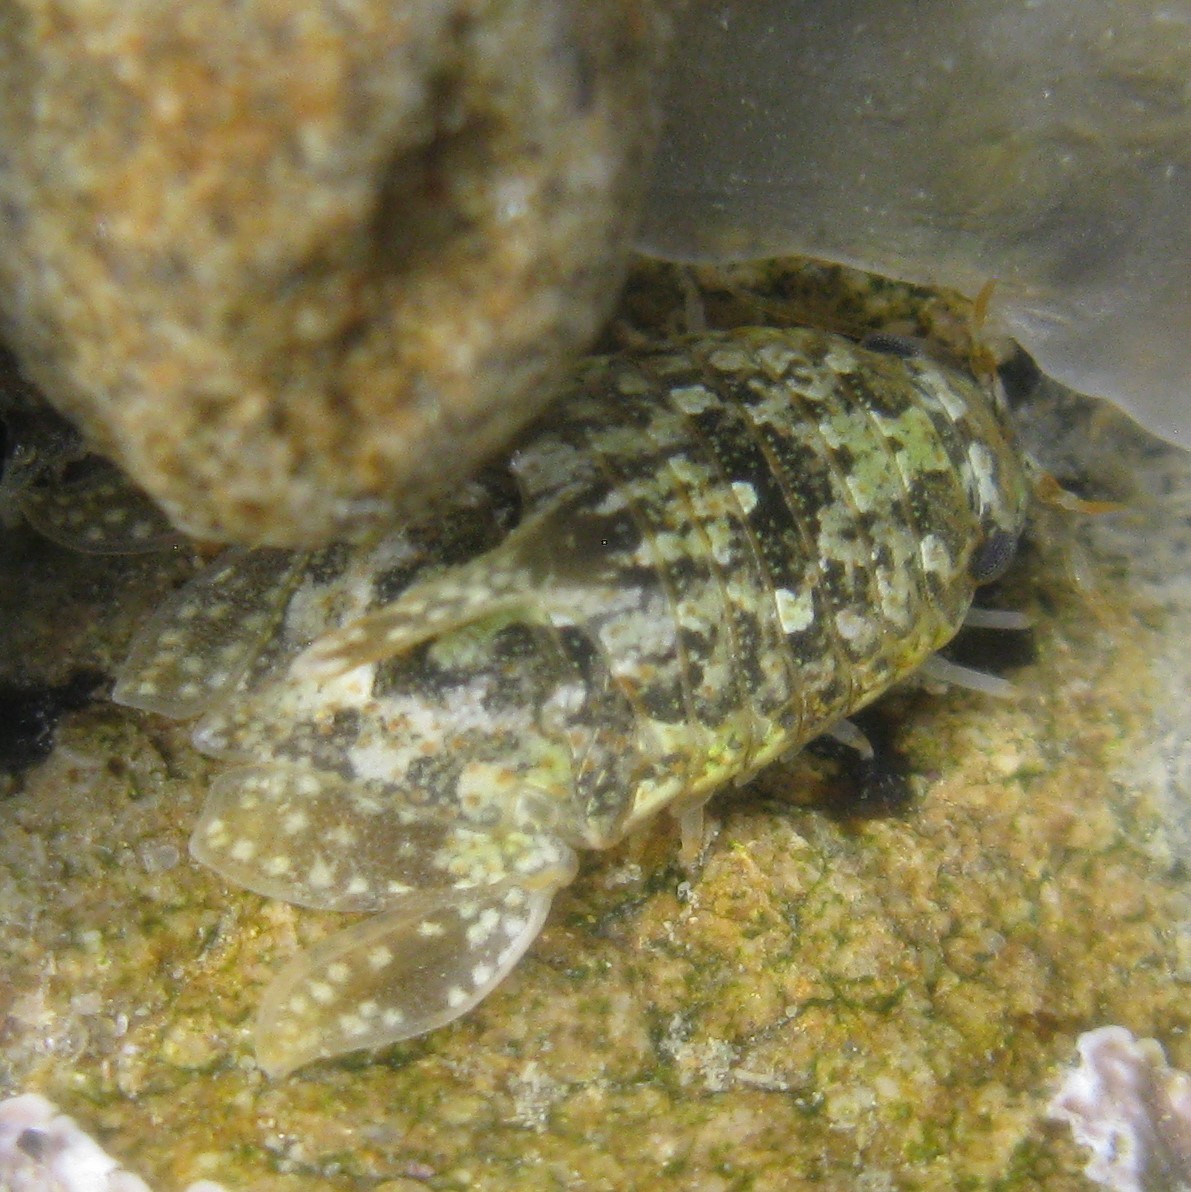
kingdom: Animalia
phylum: Arthropoda
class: Malacostraca
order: Isopoda
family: Sphaeromatidae
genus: Isocladus
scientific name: Isocladus armatus
